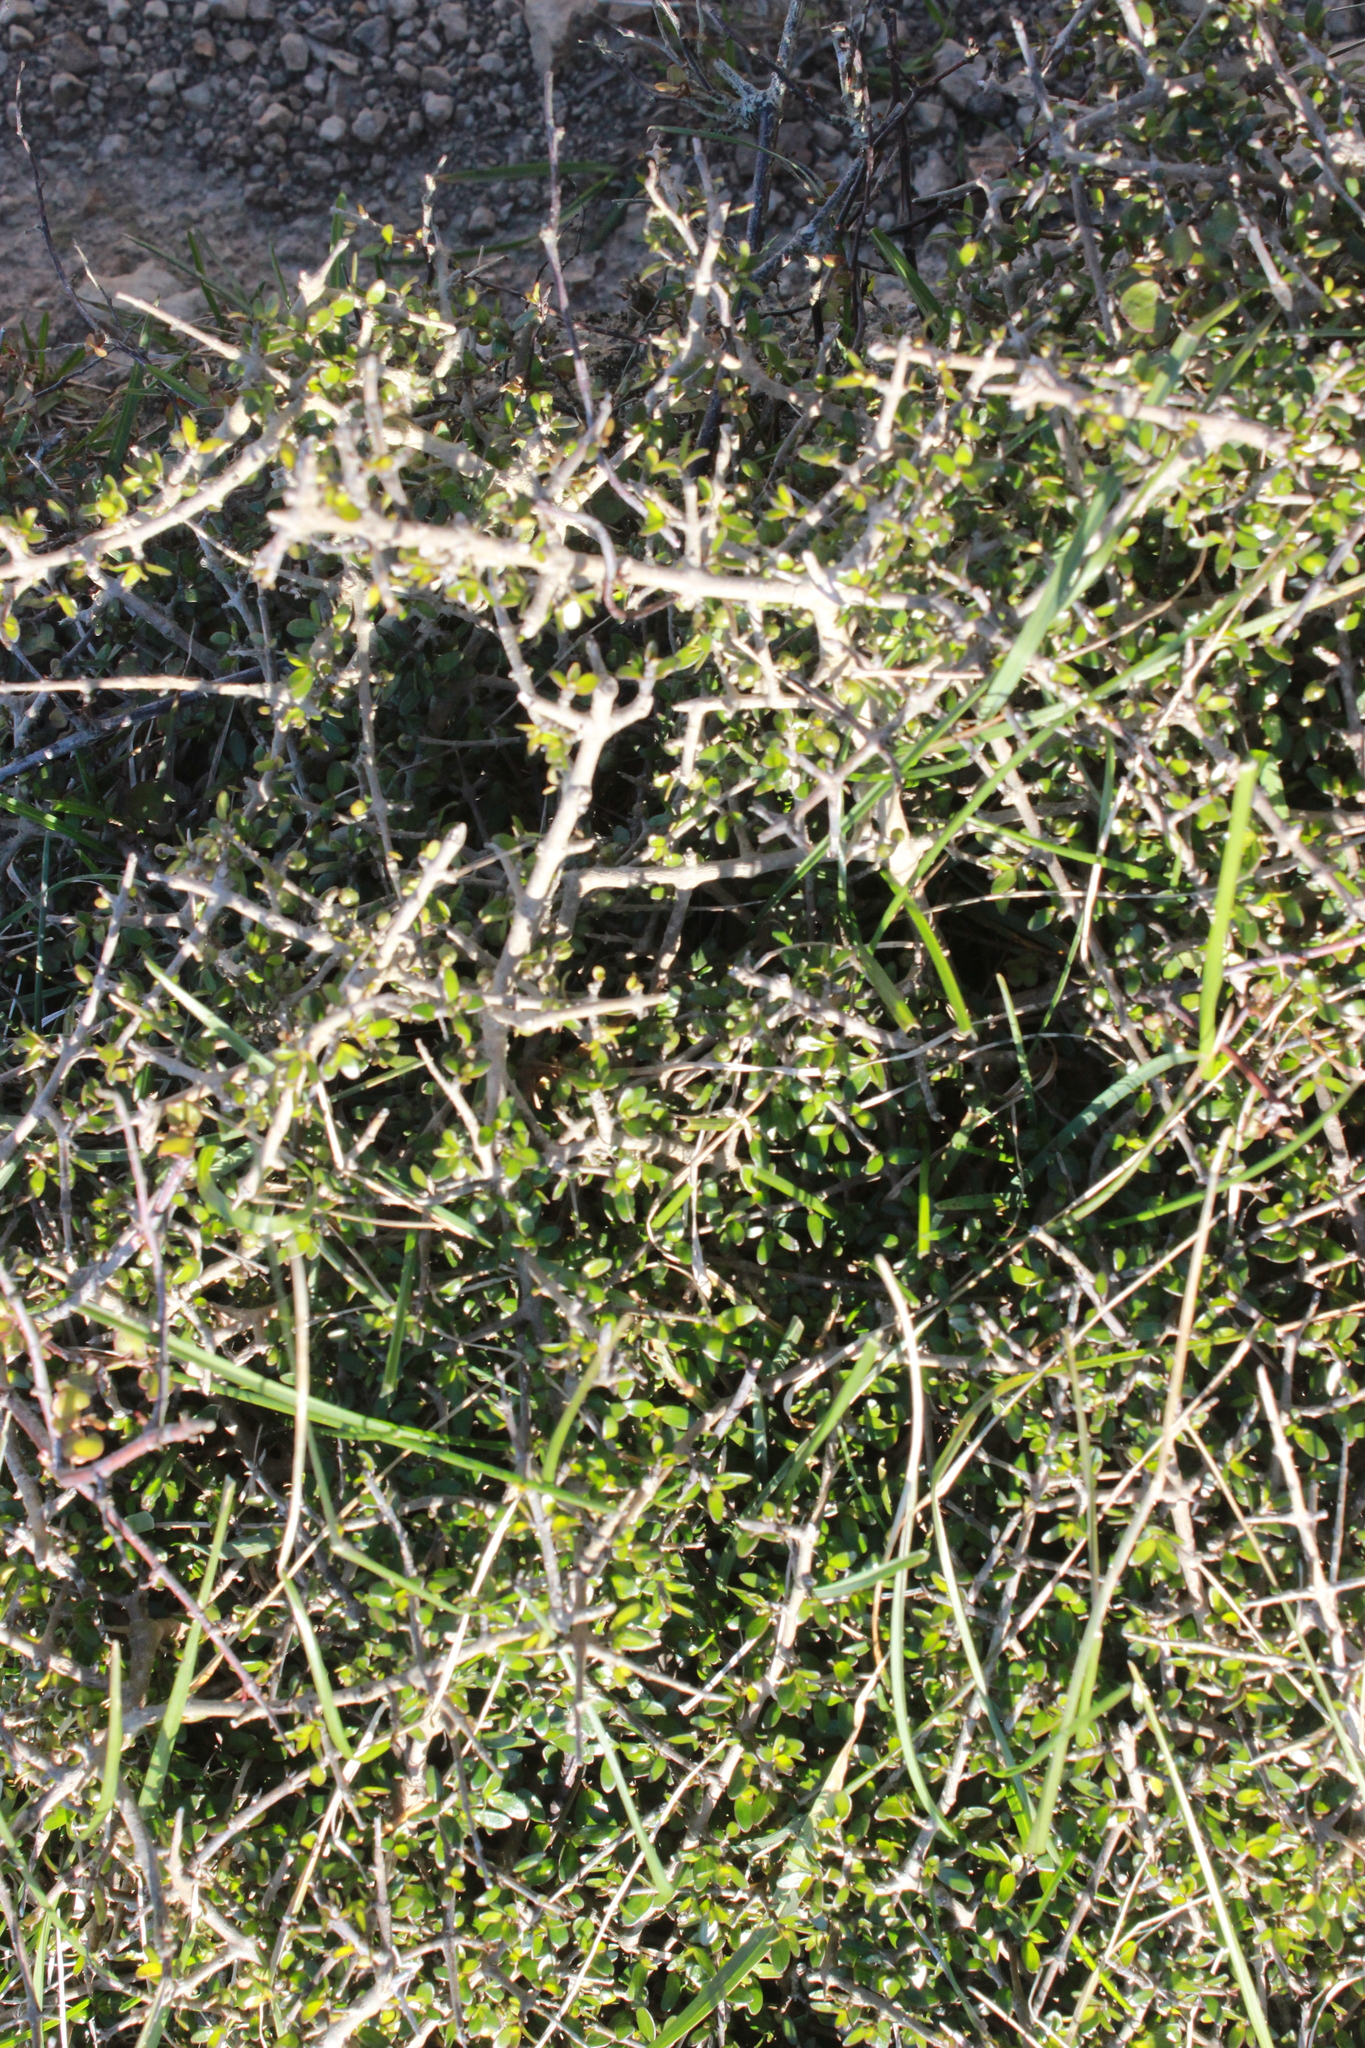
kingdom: Plantae
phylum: Tracheophyta
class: Magnoliopsida
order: Gentianales
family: Rubiaceae
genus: Coprosma
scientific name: Coprosma propinqua
